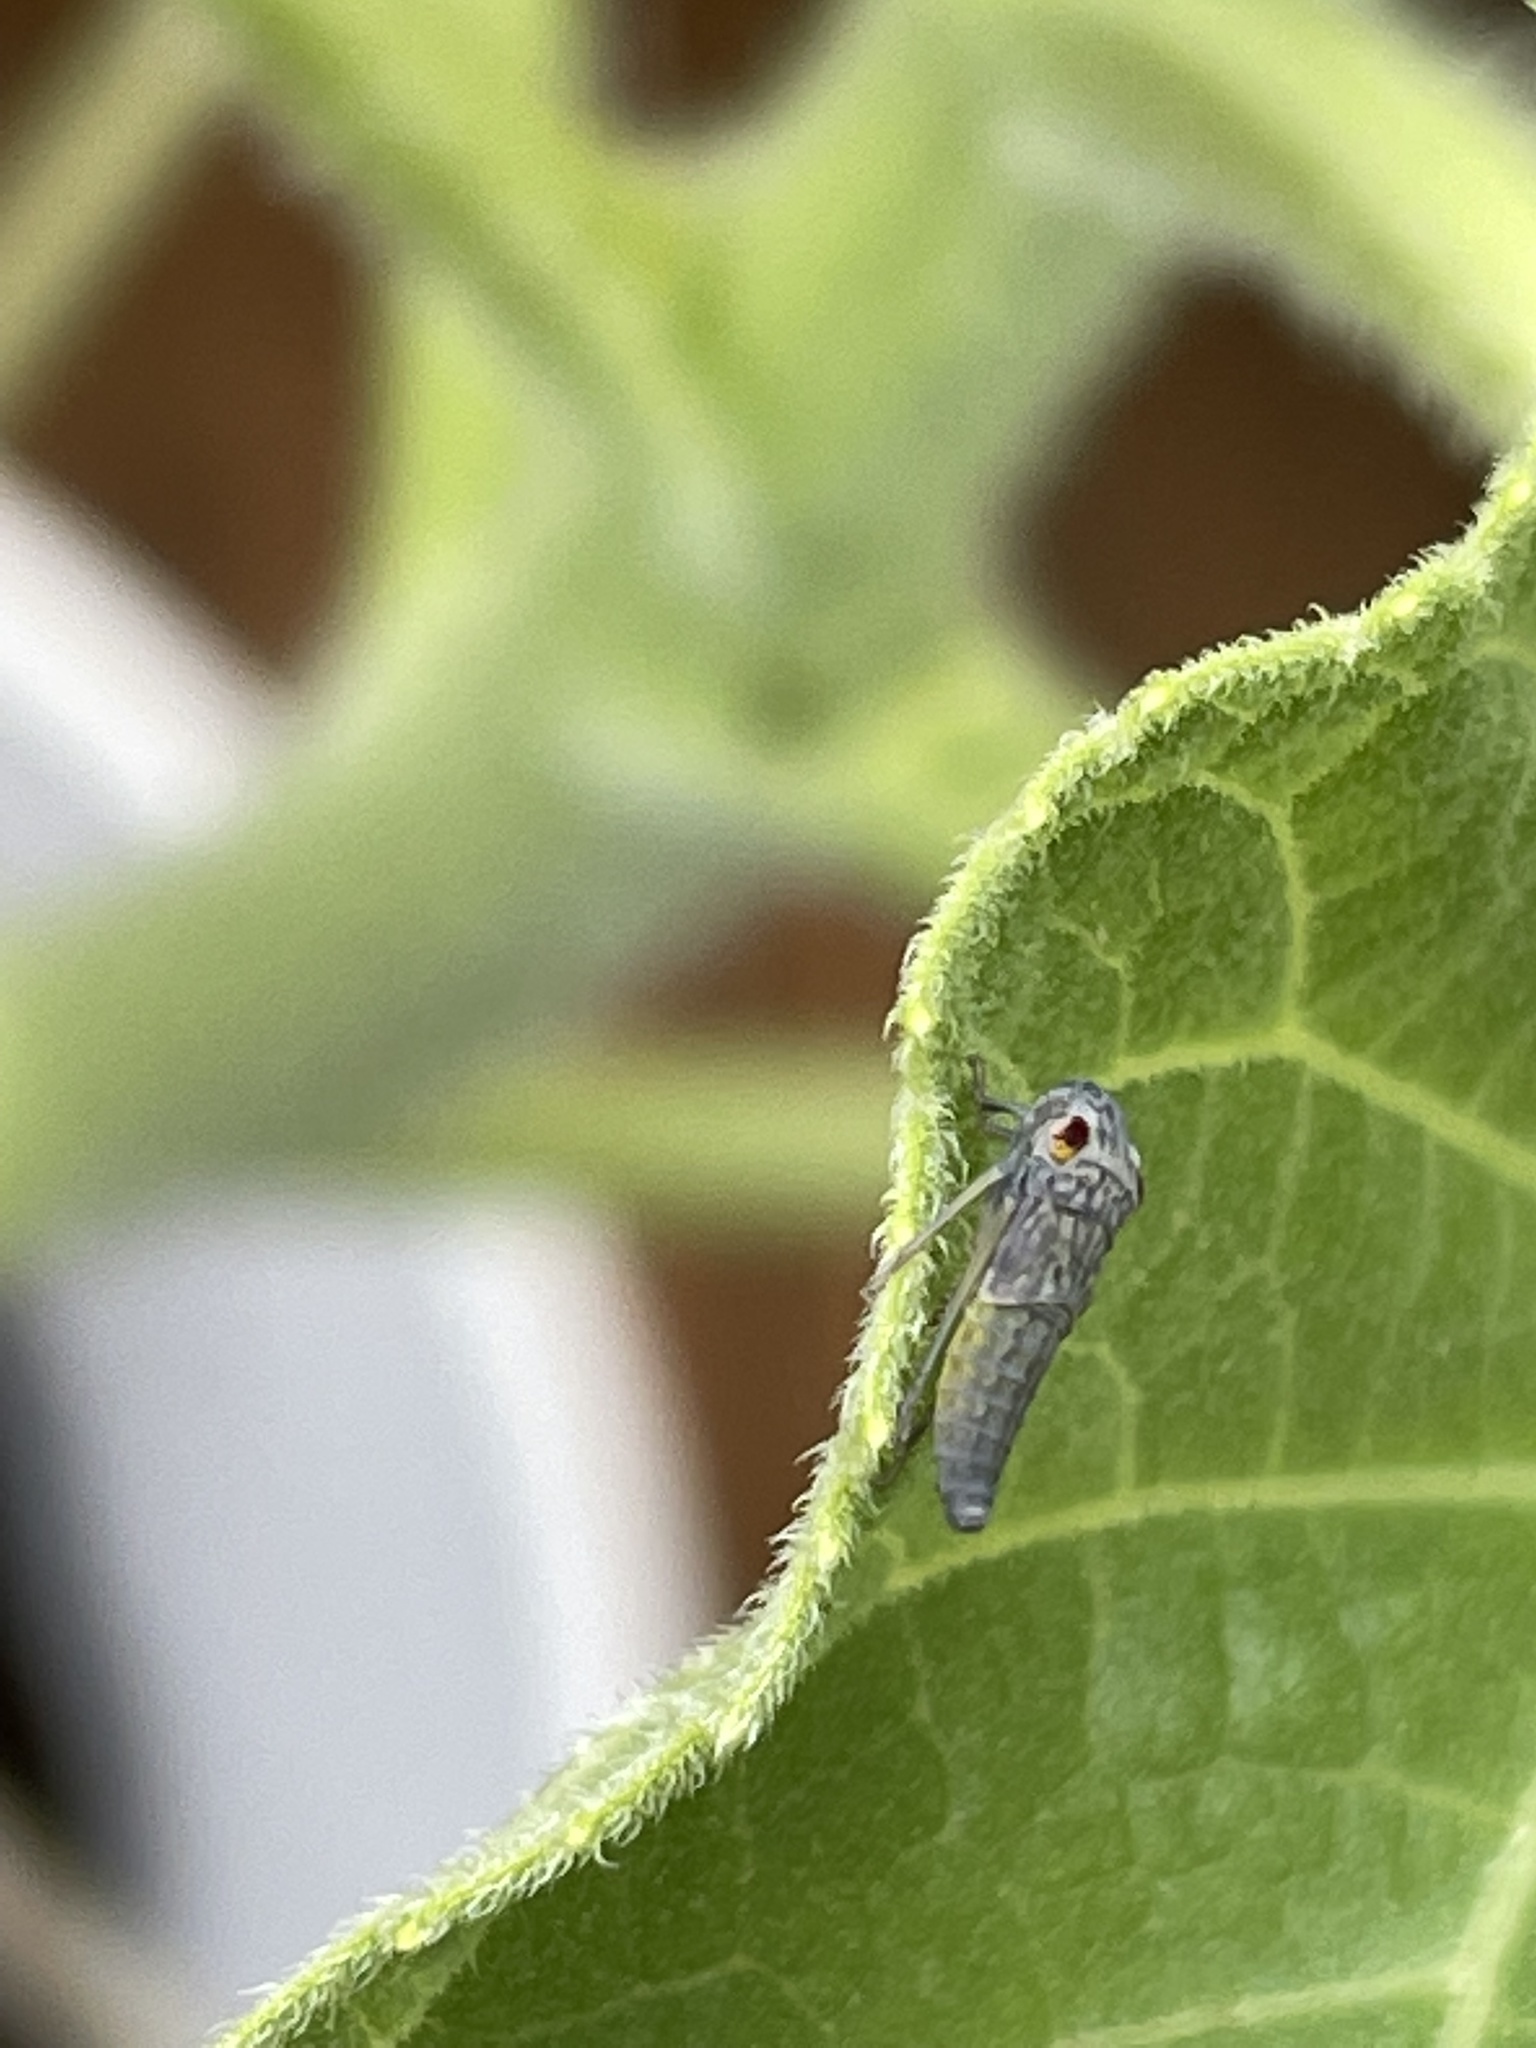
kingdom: Animalia
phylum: Arthropoda
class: Insecta
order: Hemiptera
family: Cicadellidae
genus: Oncometopia
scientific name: Oncometopia orbona
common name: Broad-headed sharpshooter
